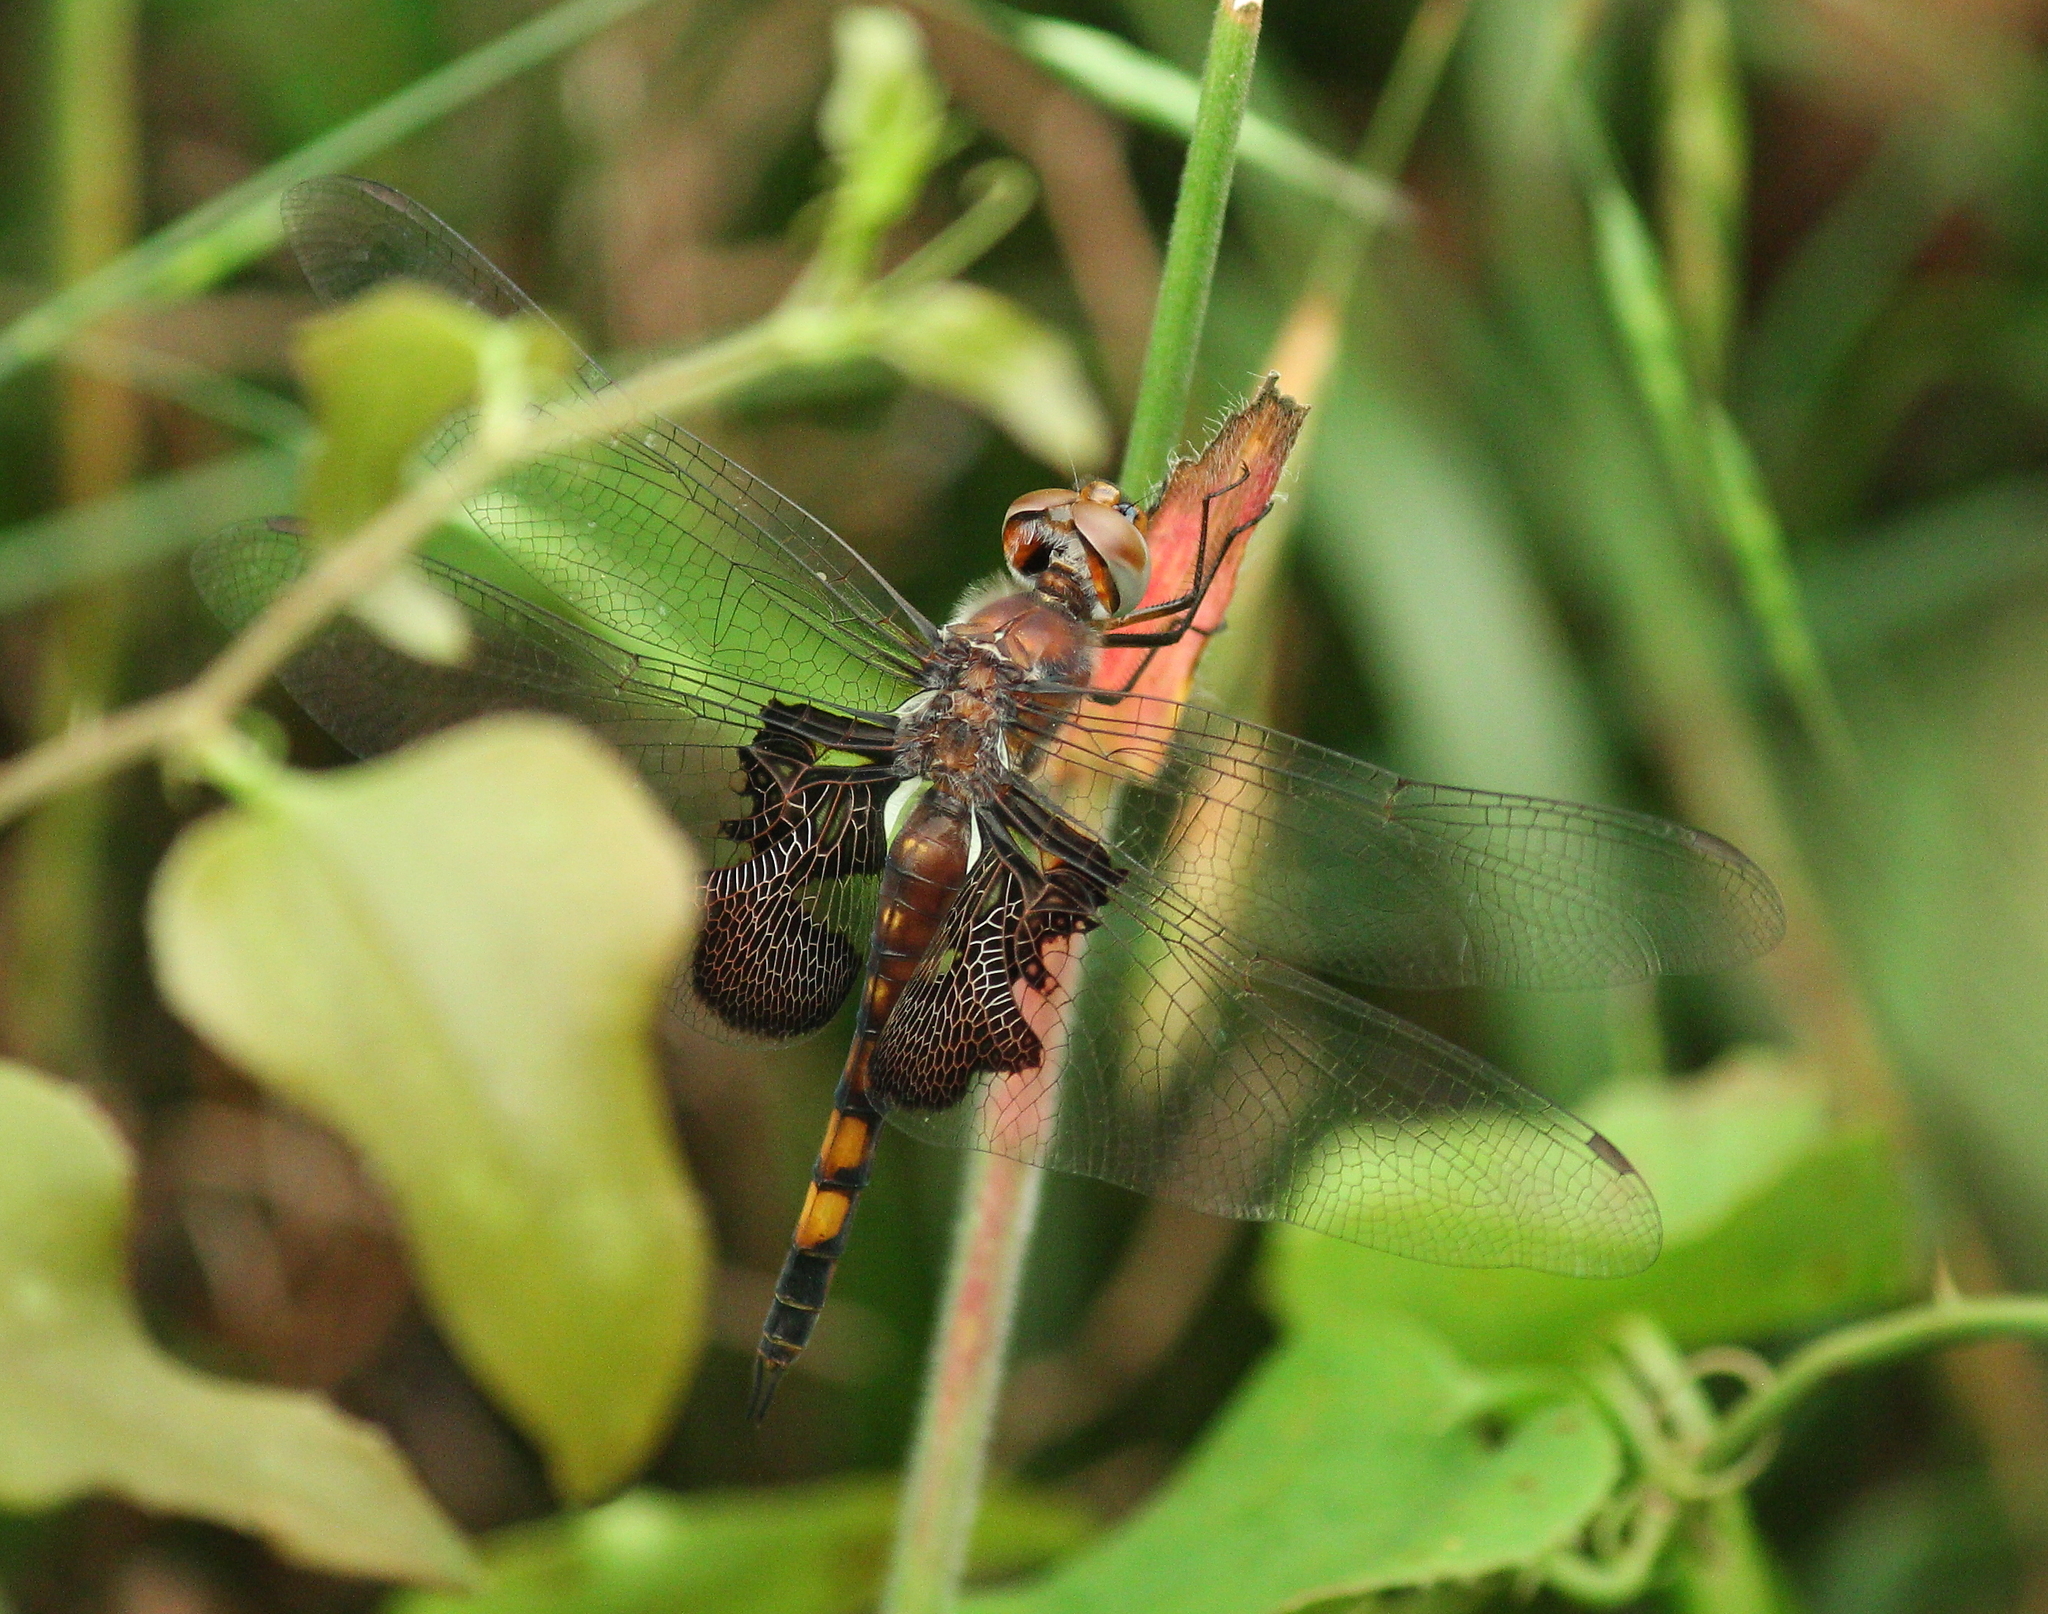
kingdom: Animalia
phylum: Arthropoda
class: Insecta
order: Odonata
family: Libellulidae
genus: Tramea
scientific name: Tramea lacerata
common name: Black saddlebags
